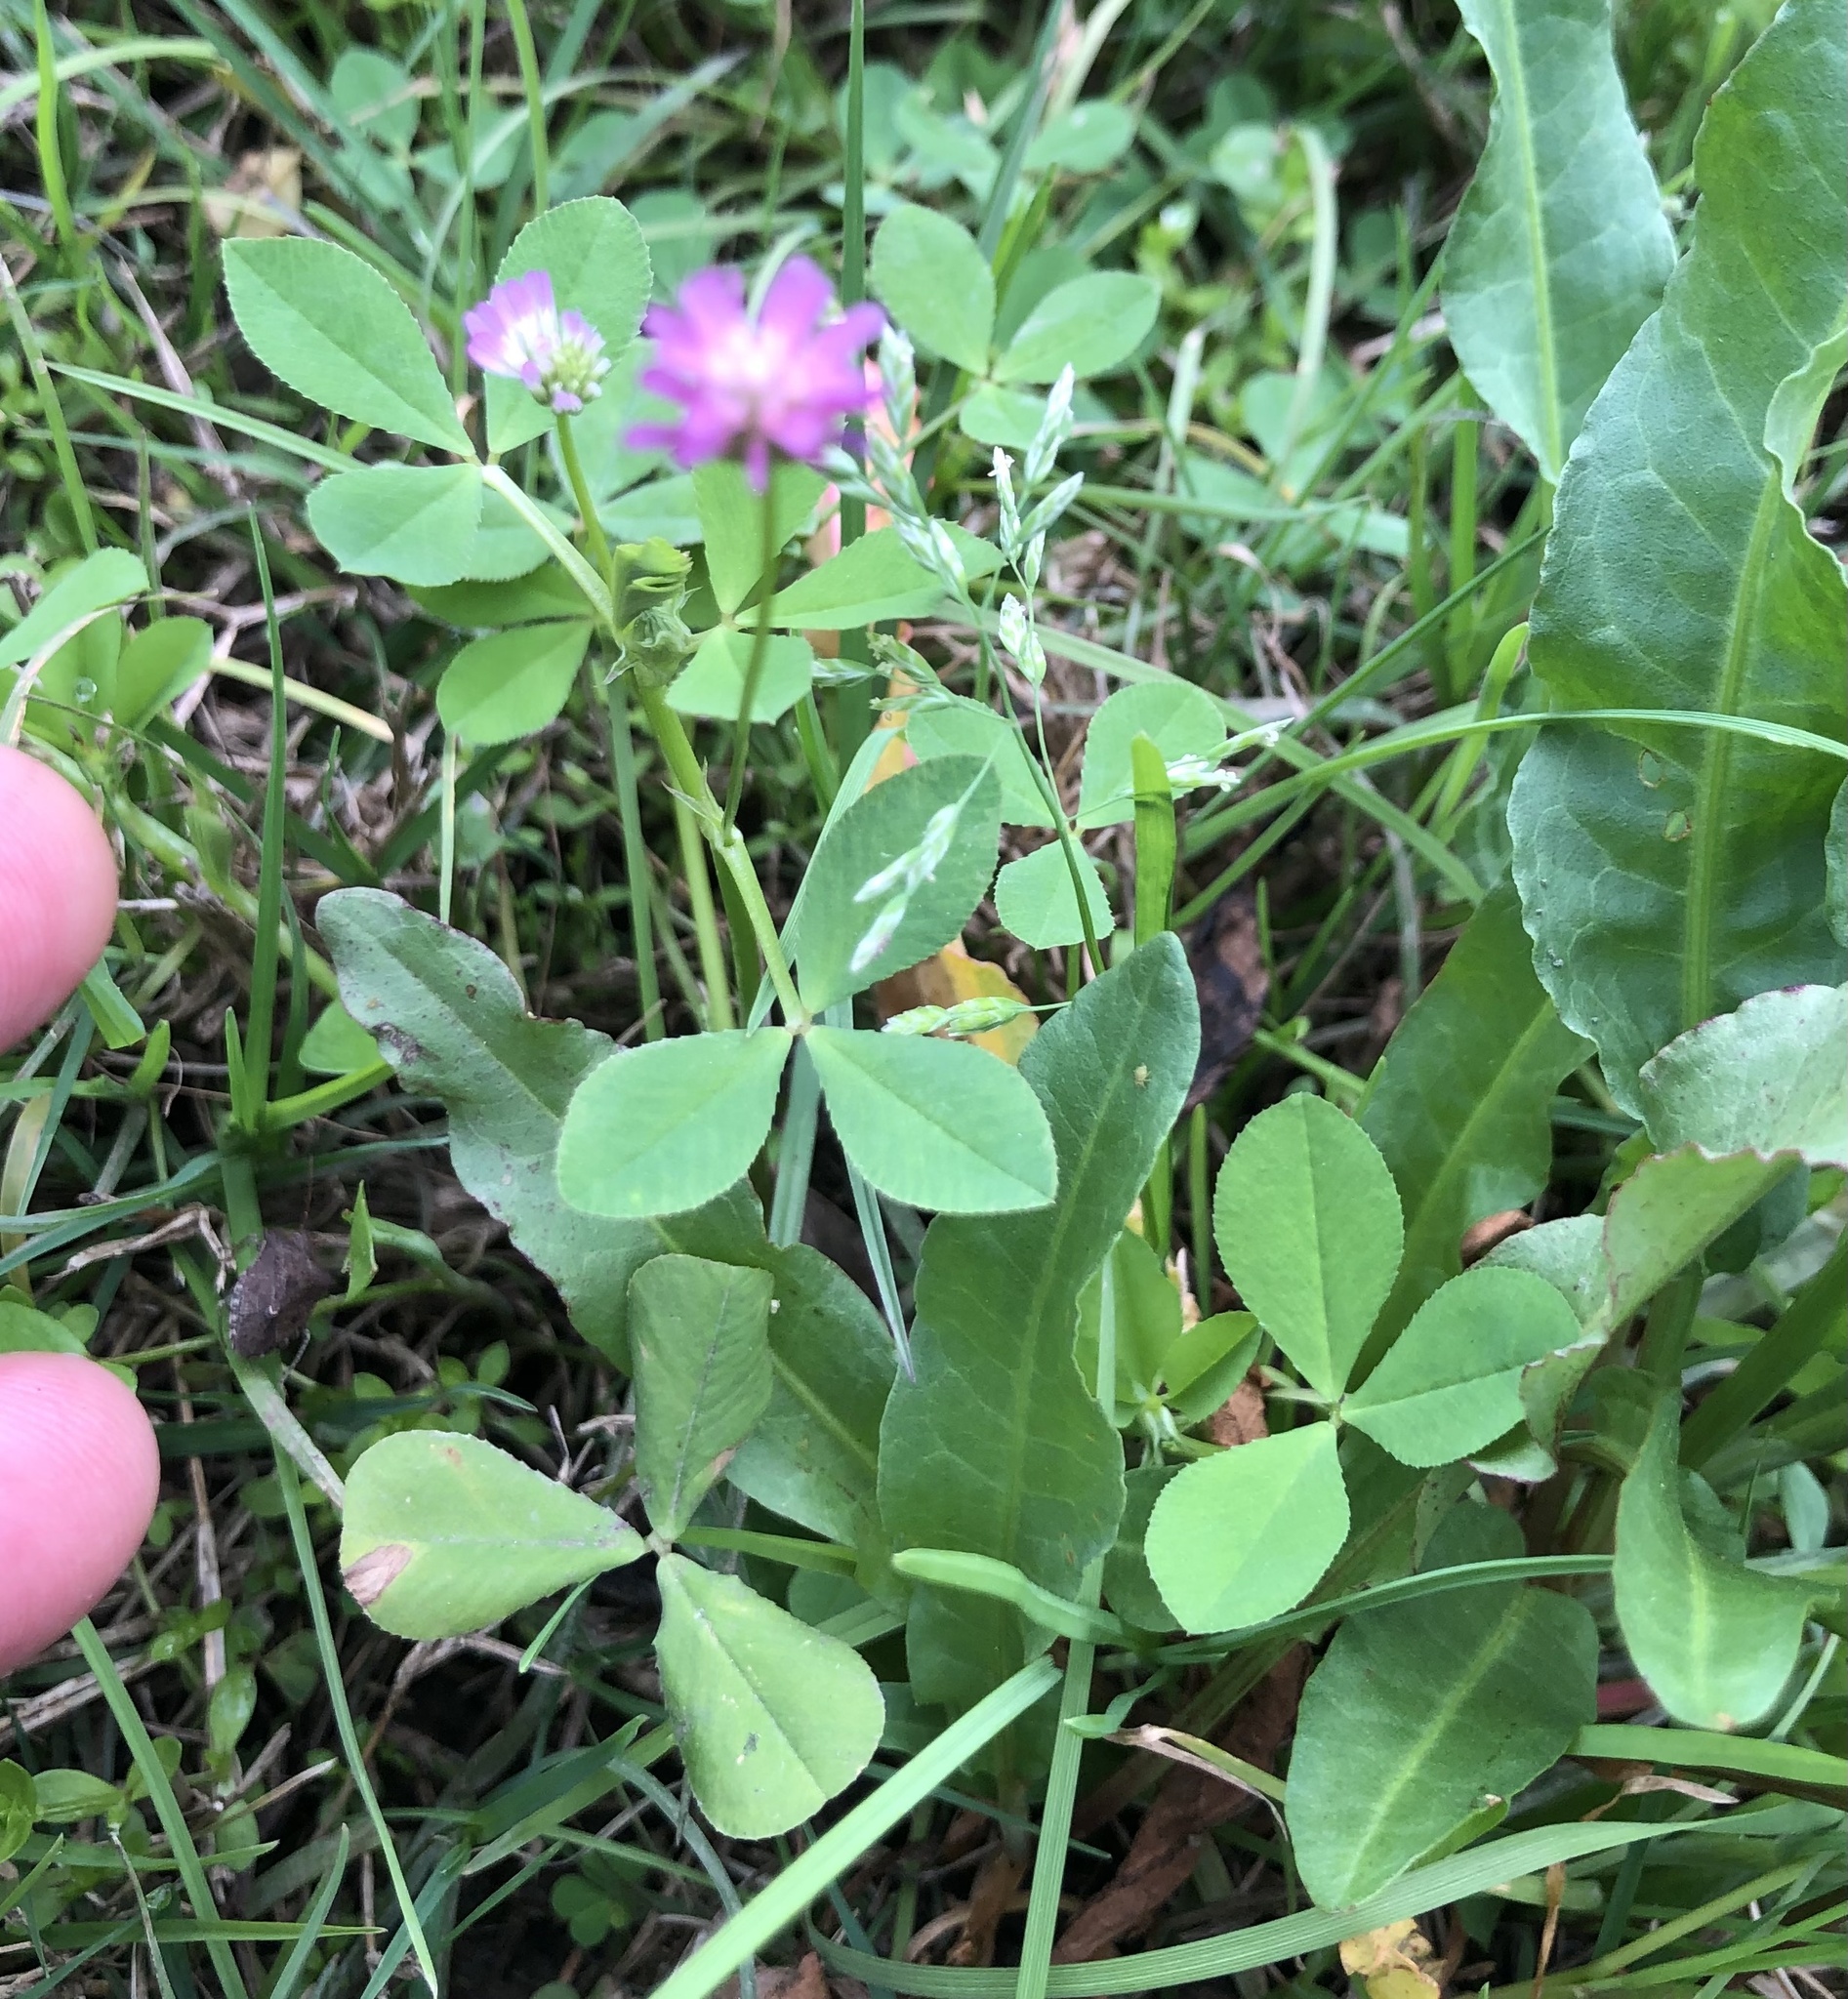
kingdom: Plantae
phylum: Tracheophyta
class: Magnoliopsida
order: Fabales
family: Fabaceae
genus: Trifolium
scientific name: Trifolium resupinatum
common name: Reversed clover
